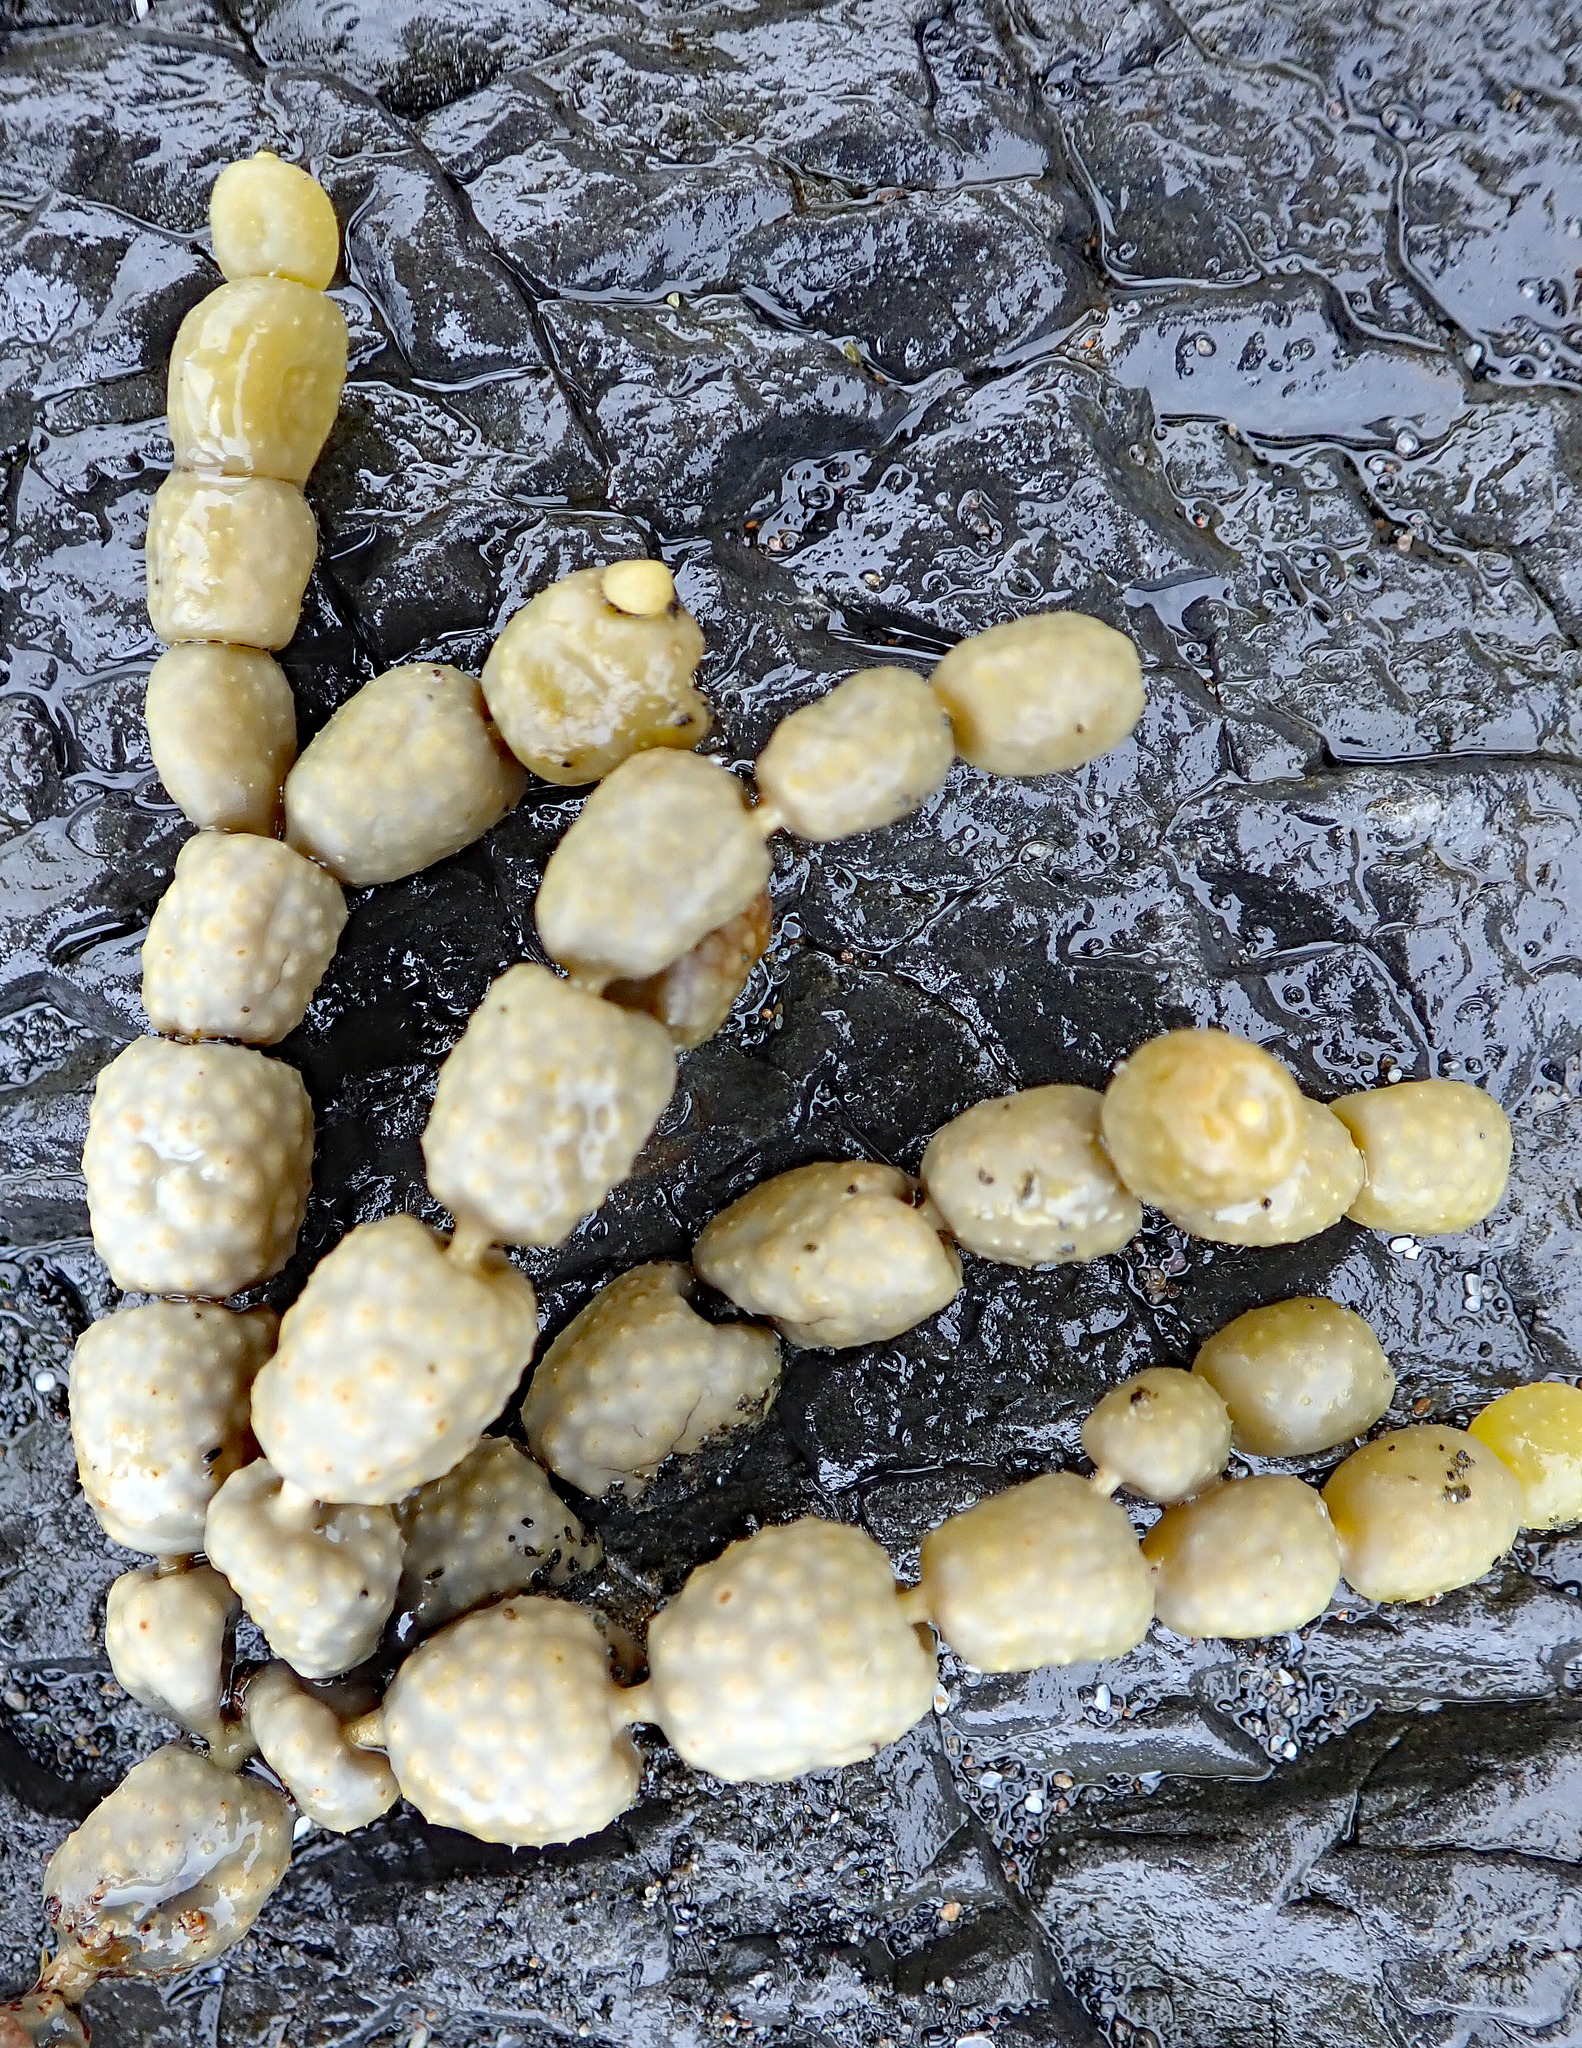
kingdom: Chromista
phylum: Ochrophyta
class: Phaeophyceae
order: Fucales
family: Hormosiraceae
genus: Hormosira
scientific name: Hormosira banksii
